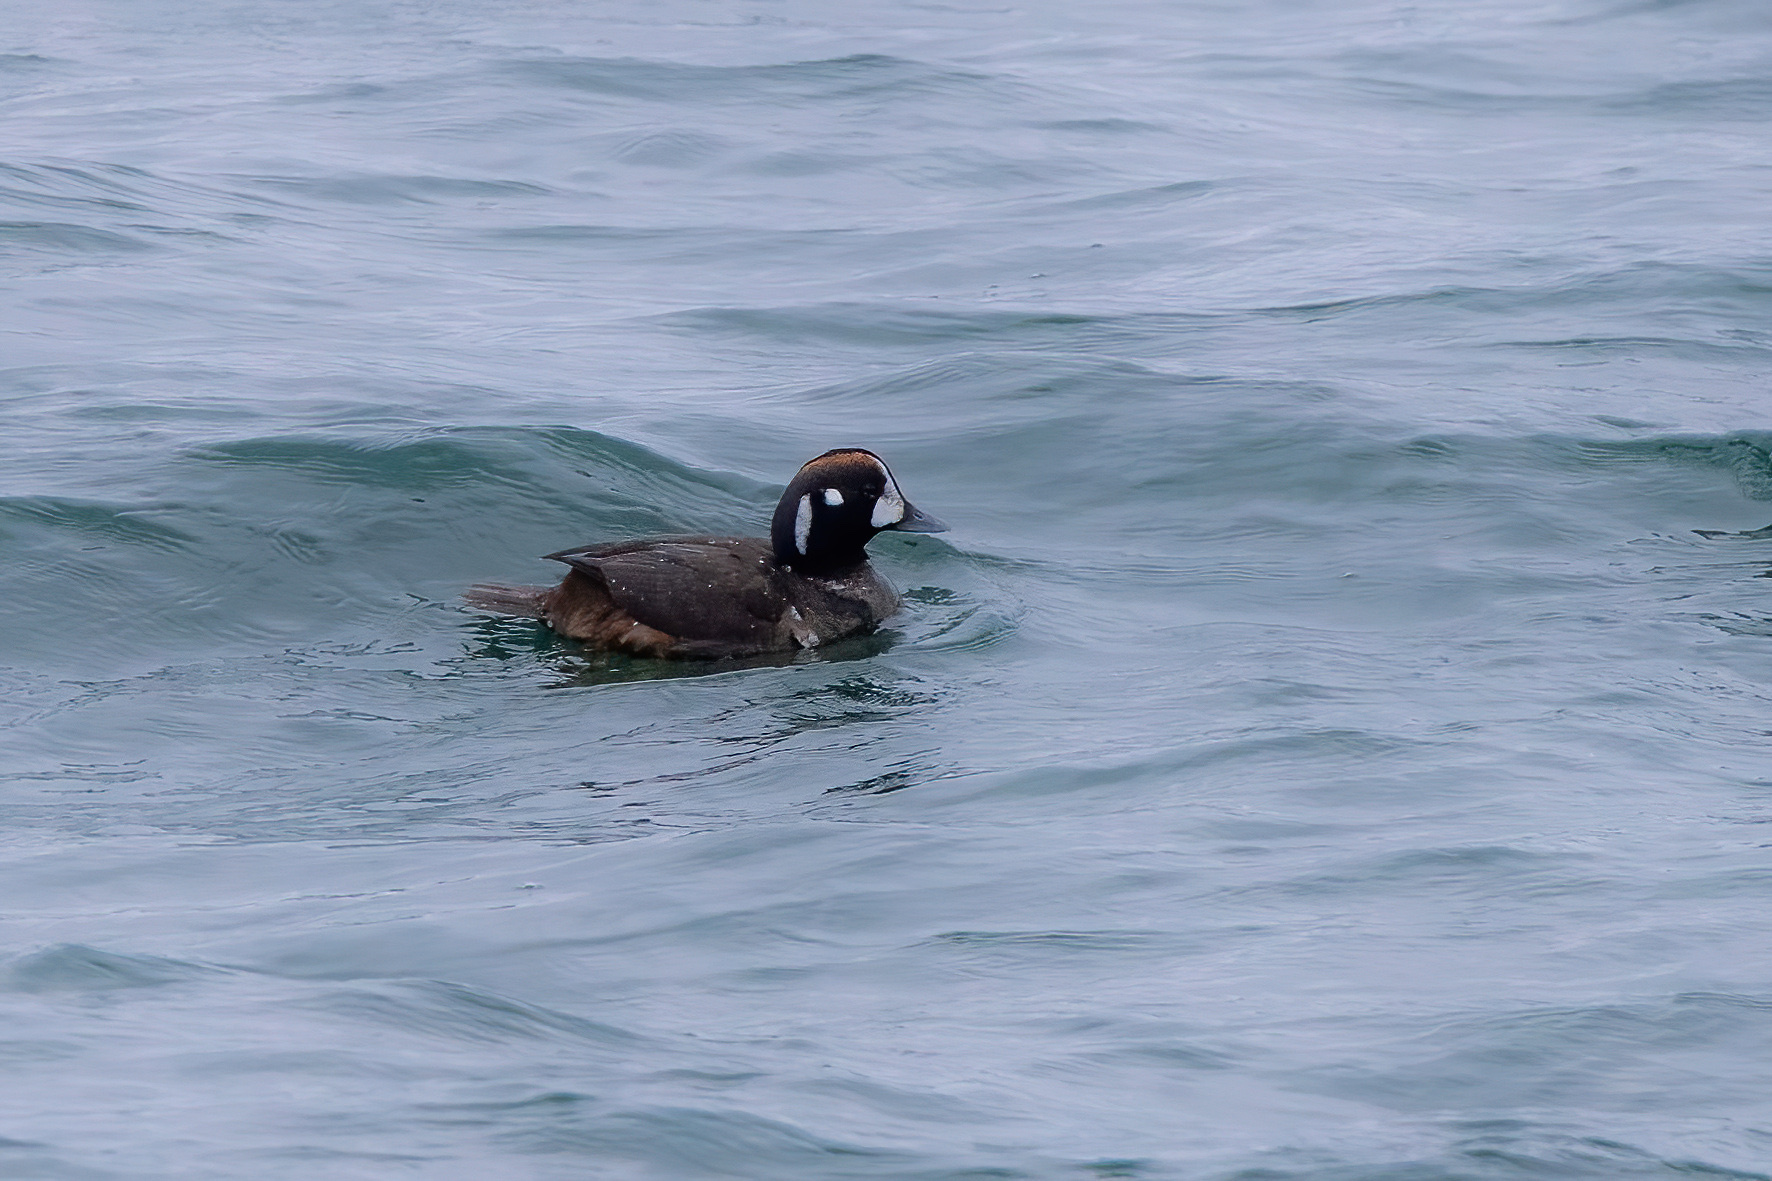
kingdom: Animalia
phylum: Chordata
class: Aves
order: Anseriformes
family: Anatidae
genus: Histrionicus
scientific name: Histrionicus histrionicus
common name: Harlequin duck
